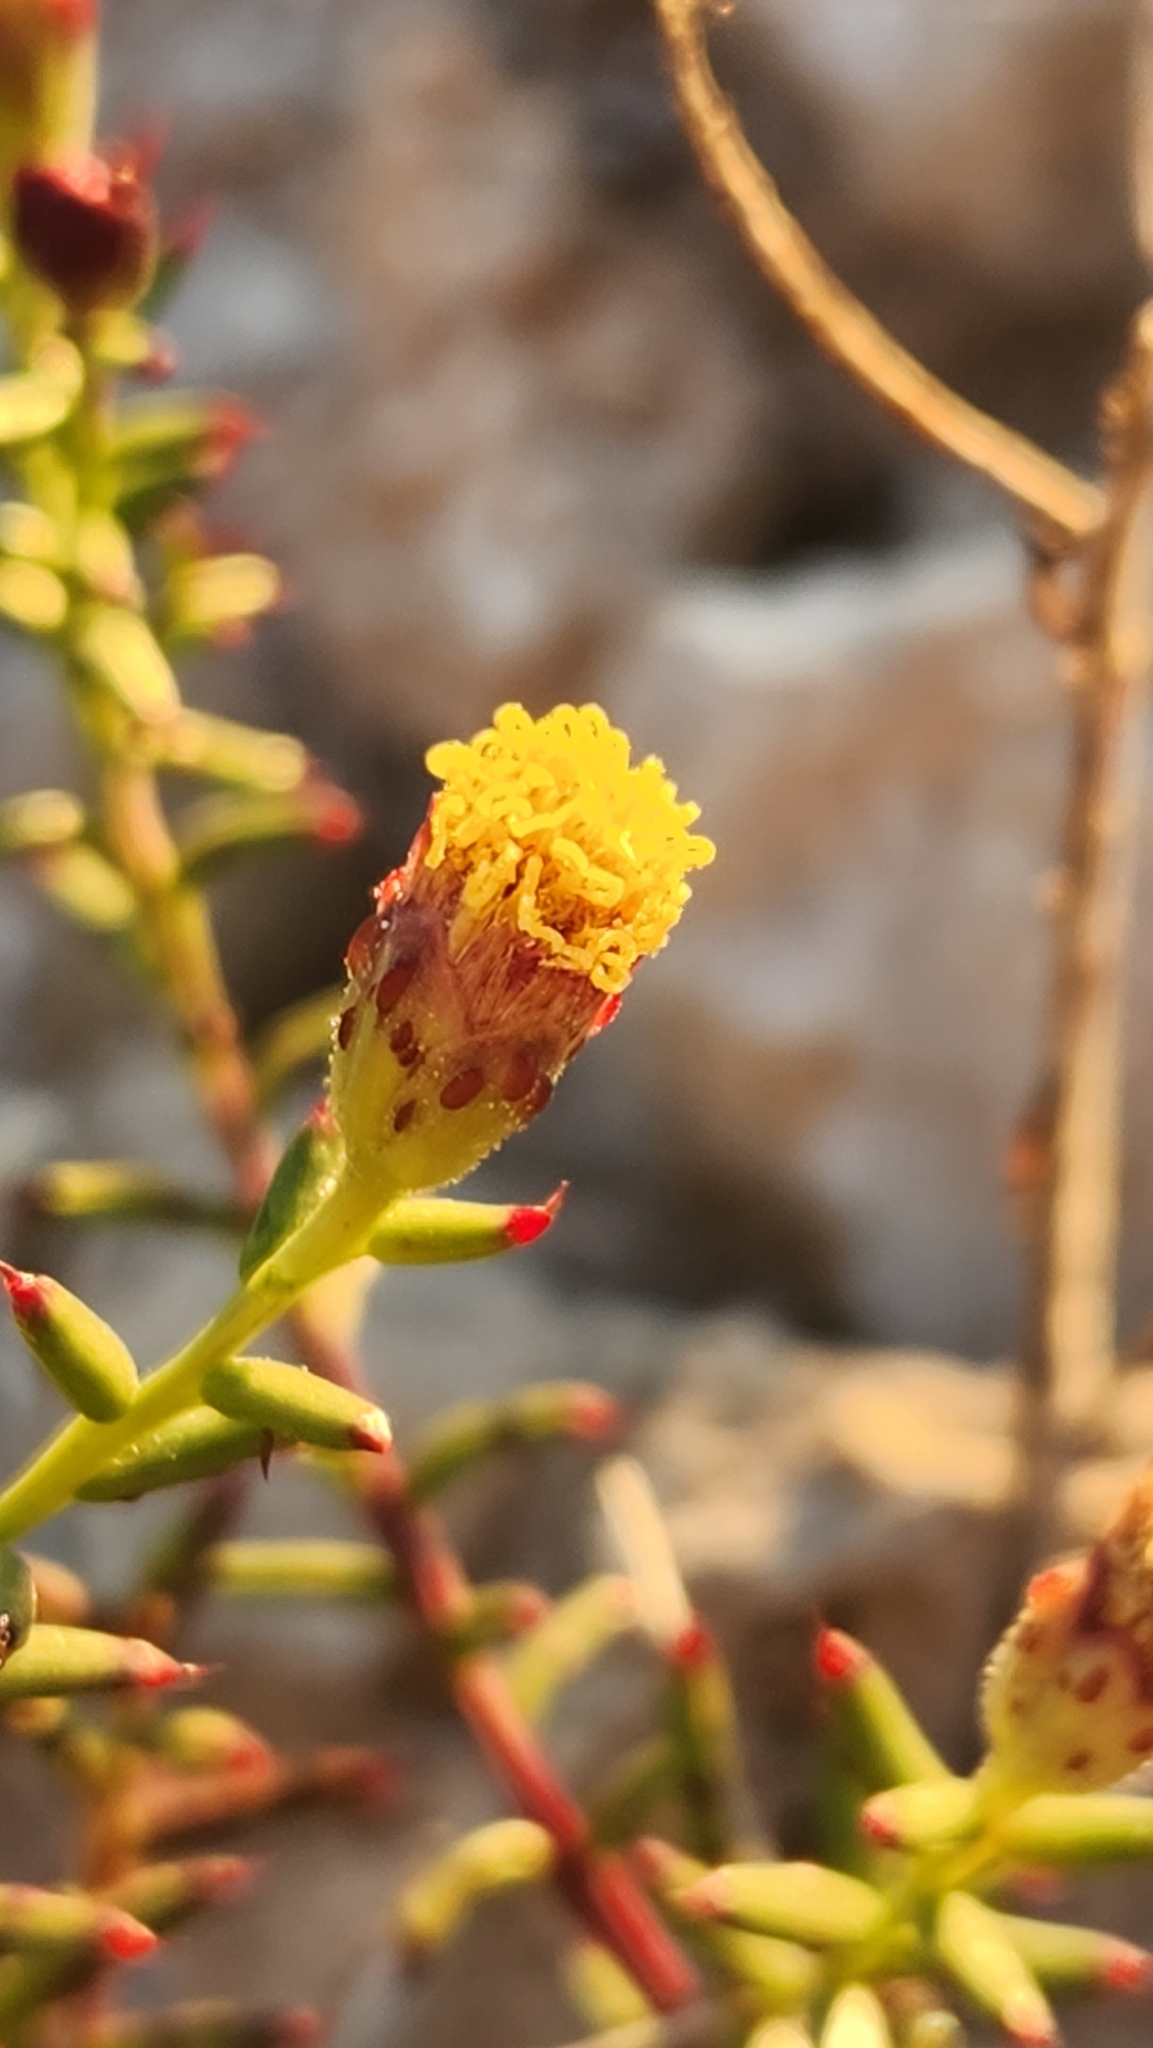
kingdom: Plantae
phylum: Tracheophyta
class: Magnoliopsida
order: Asterales
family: Asteraceae
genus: Bajacalia
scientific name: Bajacalia crassifolia
